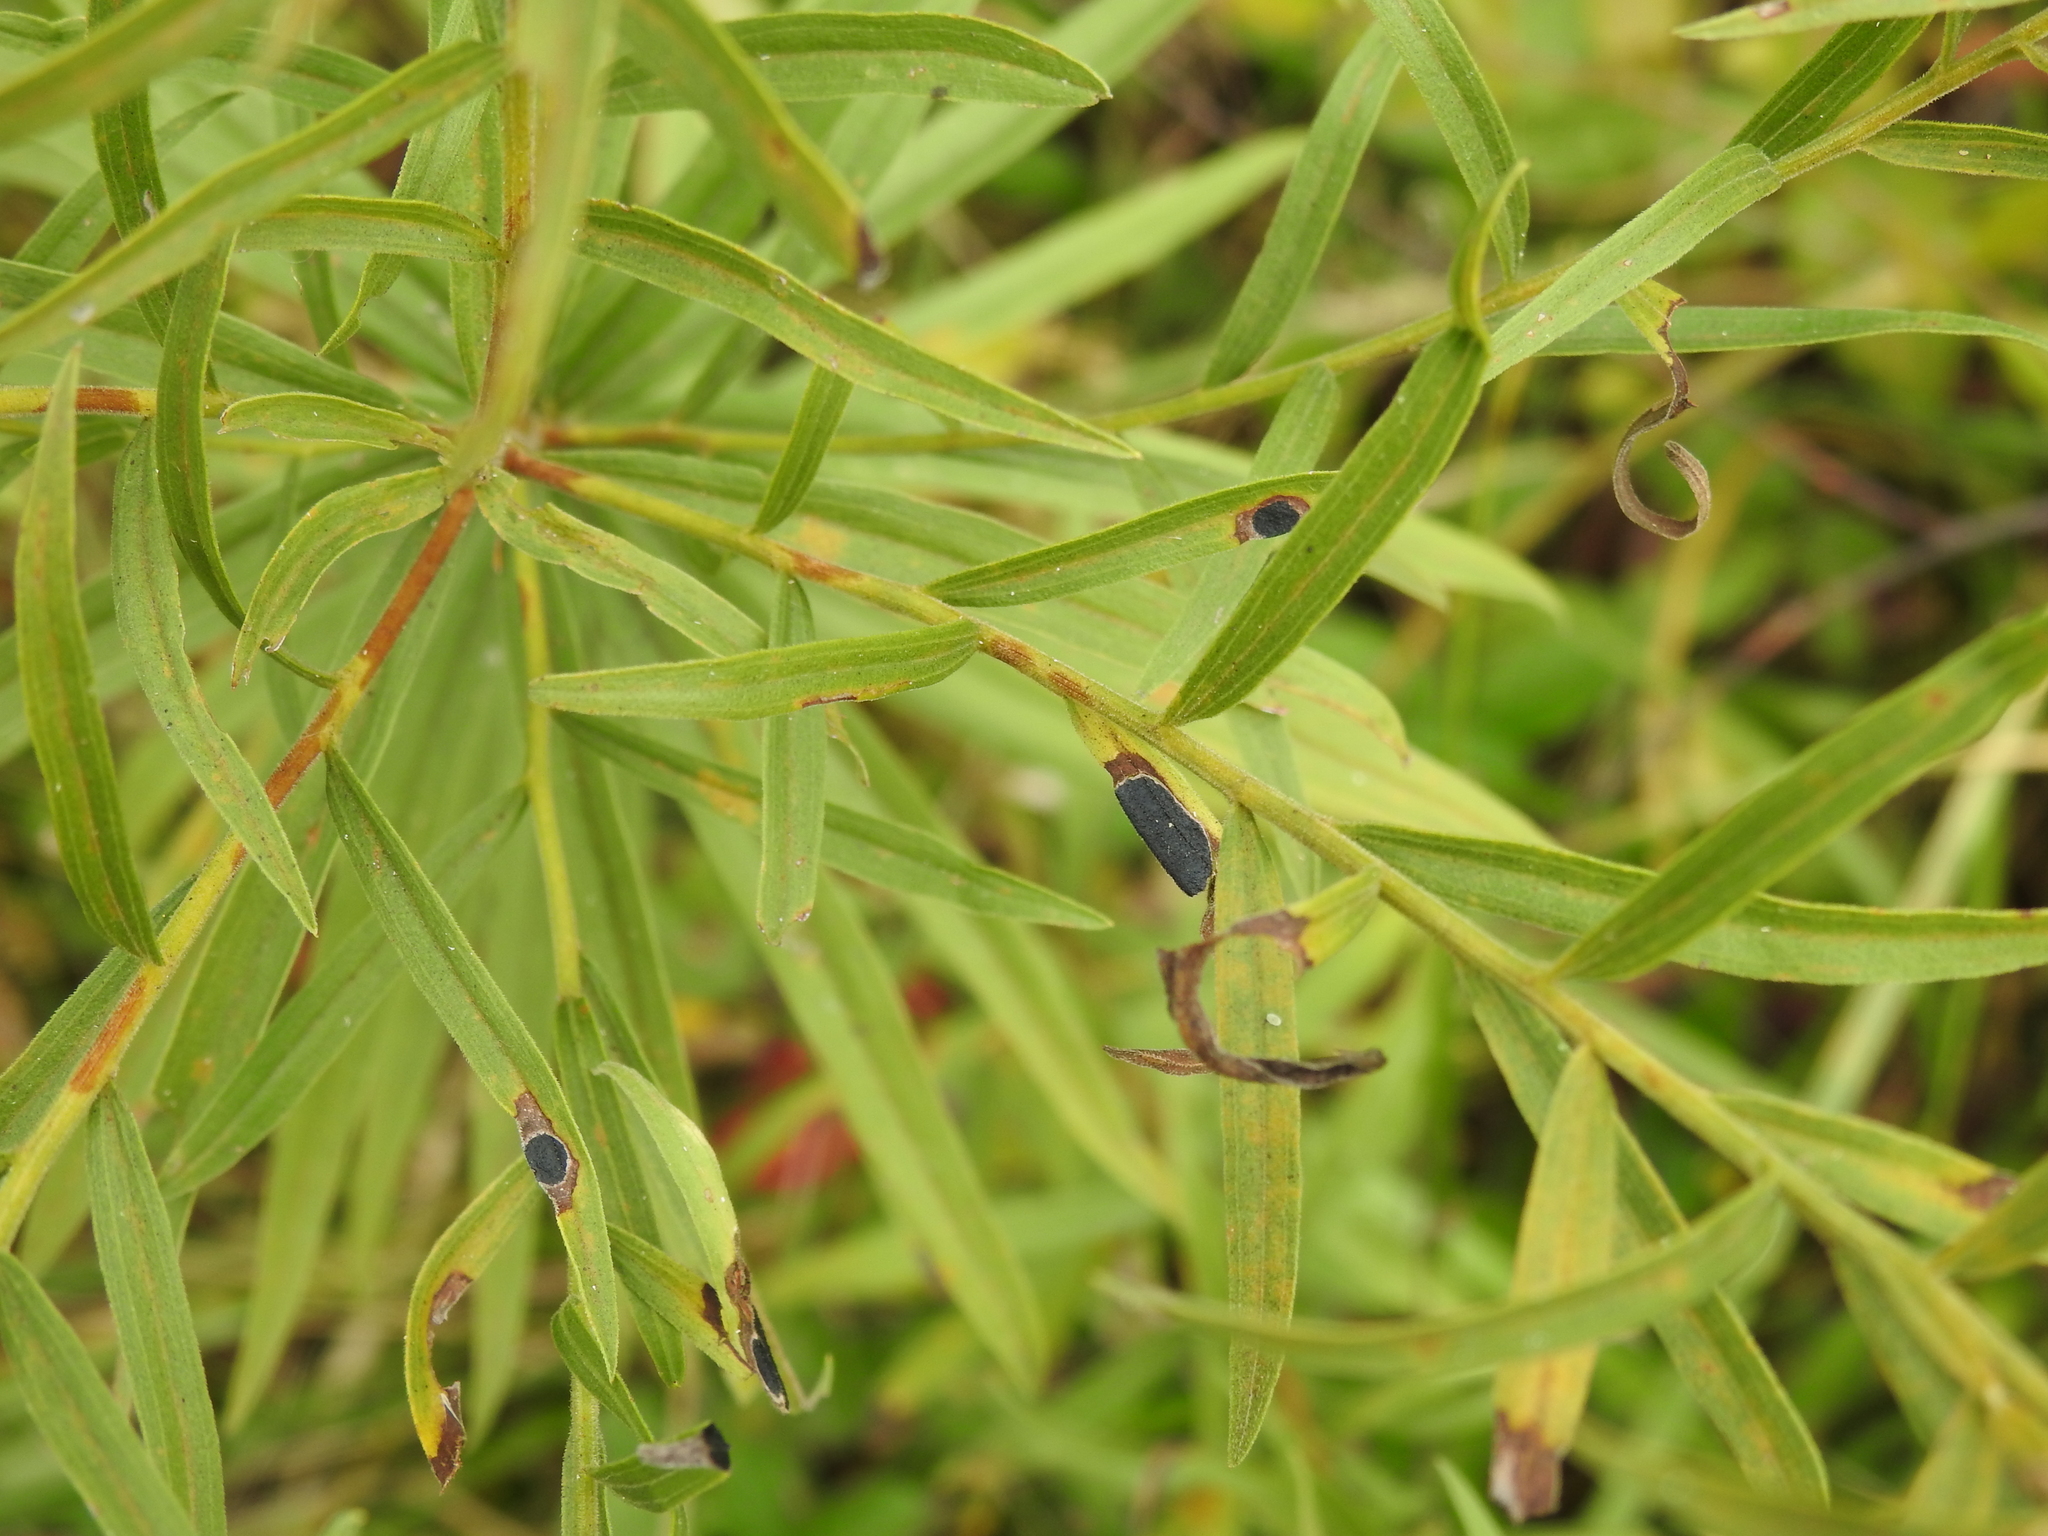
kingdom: Animalia
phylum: Arthropoda
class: Insecta
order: Diptera
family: Cecidomyiidae
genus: Asteromyia
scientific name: Asteromyia euthamiae
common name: Euthamia leaf gall midge
